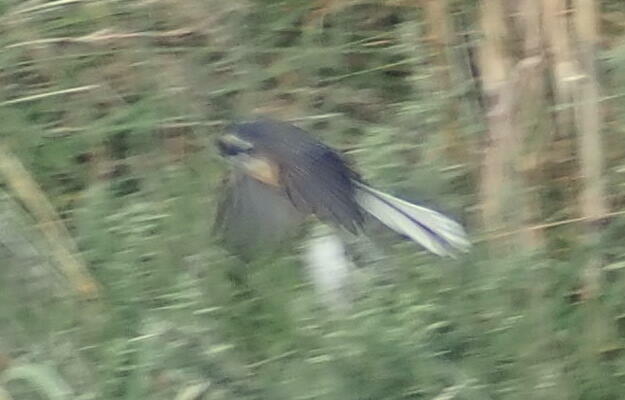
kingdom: Animalia
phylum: Chordata
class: Aves
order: Passeriformes
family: Rhipiduridae
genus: Rhipidura
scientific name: Rhipidura fuliginosa
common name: New zealand fantail
